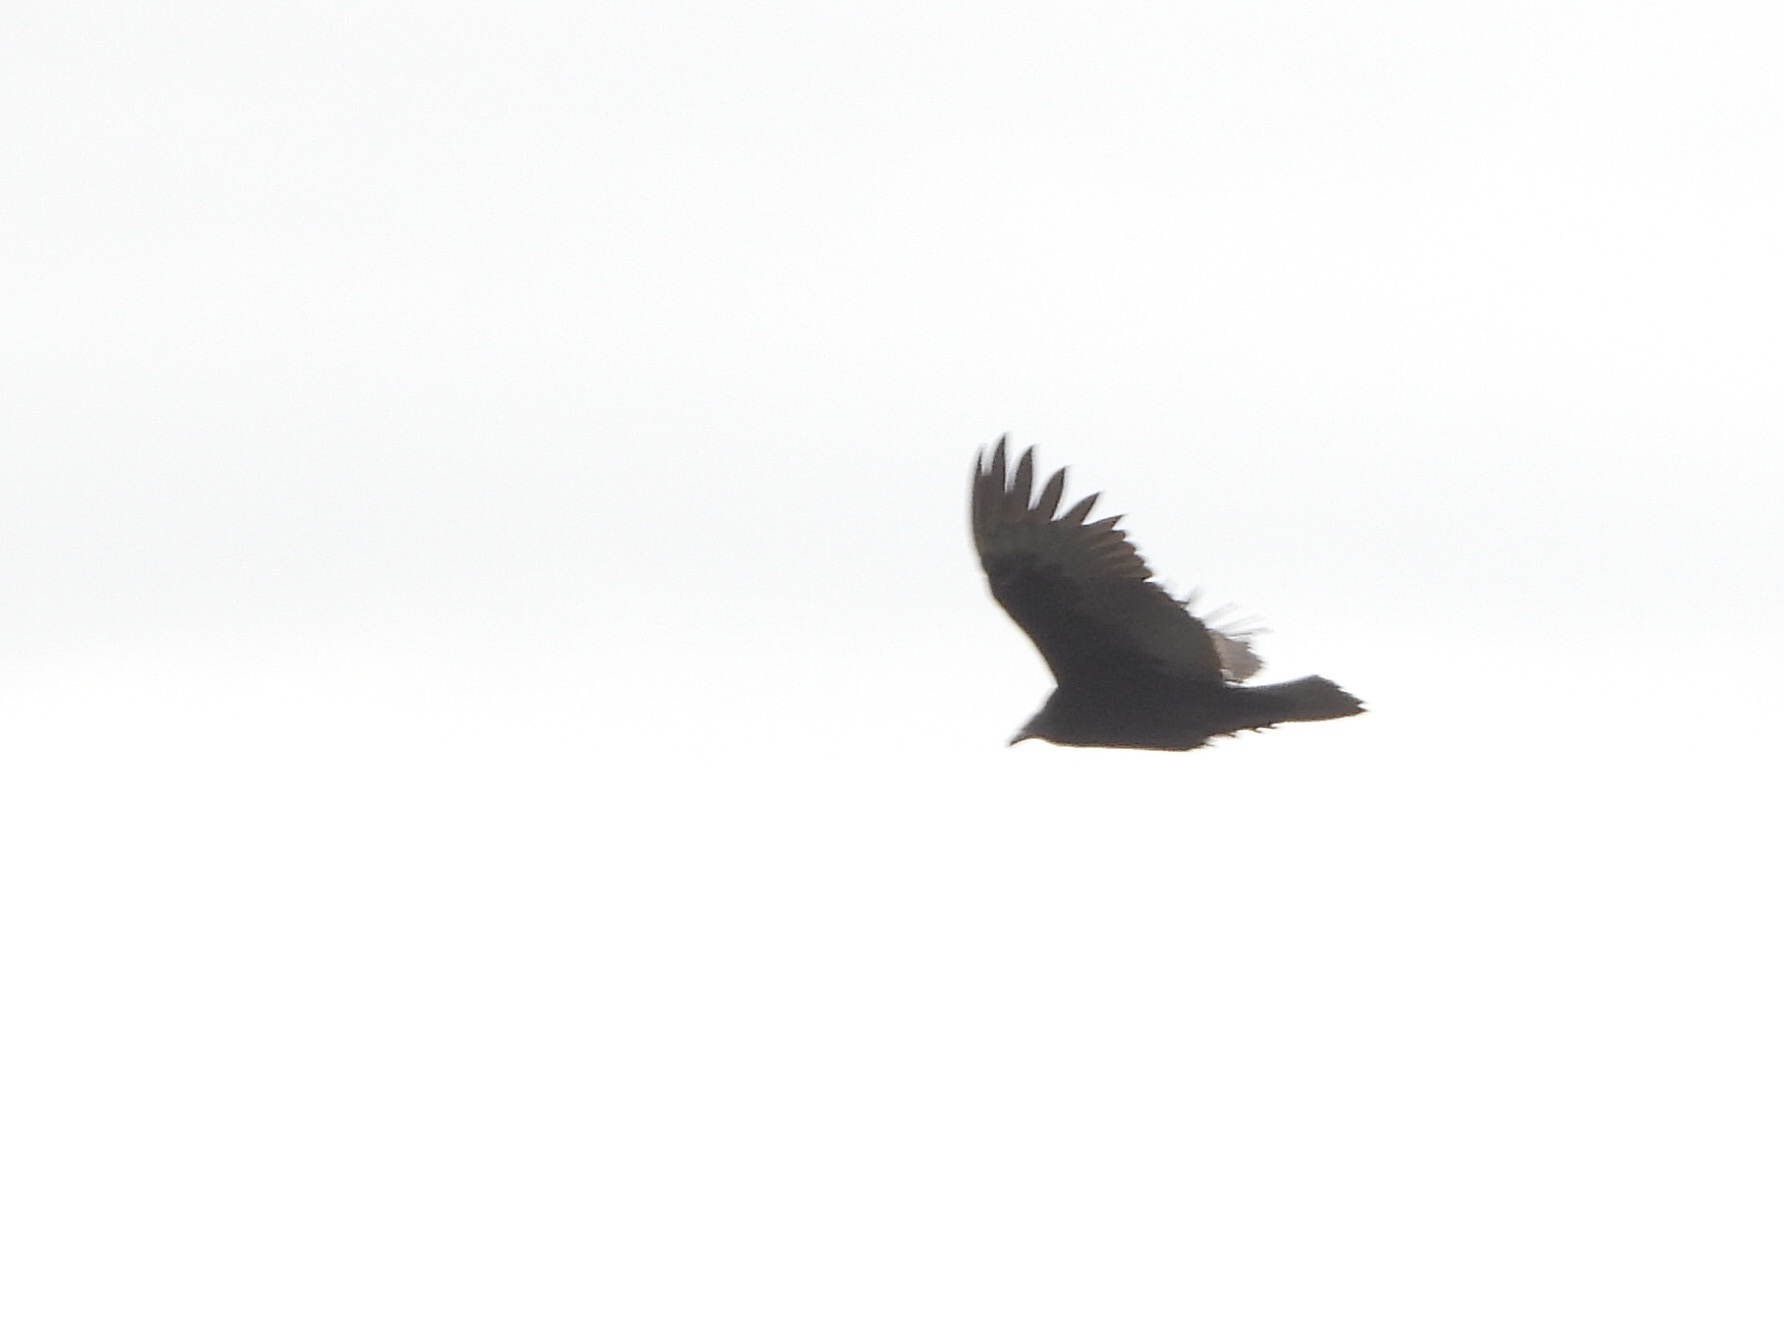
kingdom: Animalia
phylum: Chordata
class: Aves
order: Accipitriformes
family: Cathartidae
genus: Cathartes
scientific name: Cathartes aura
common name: Turkey vulture
